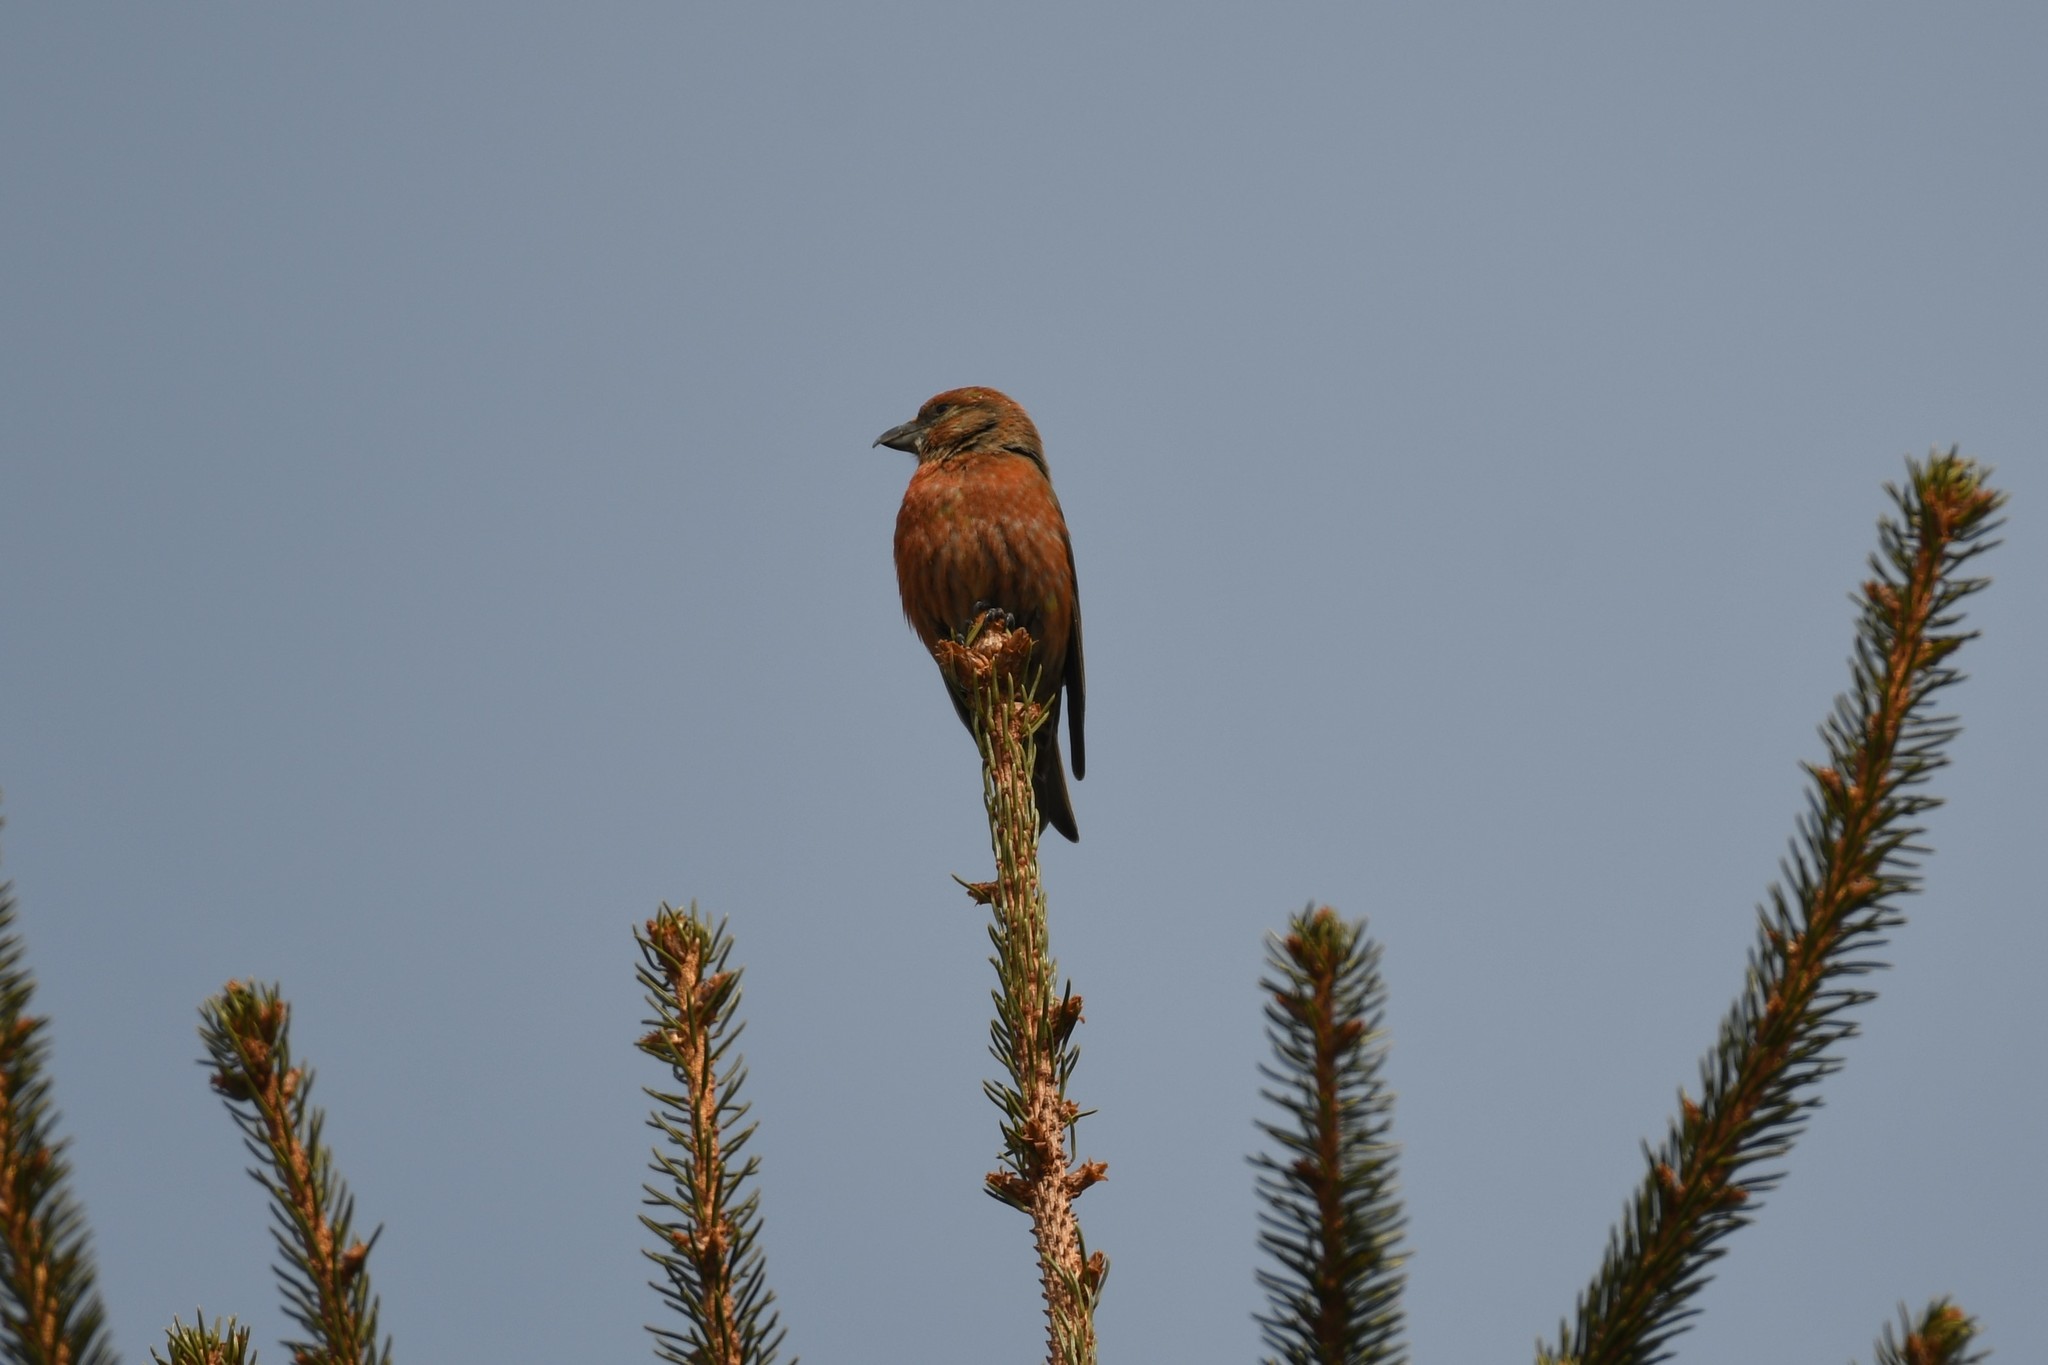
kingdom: Animalia
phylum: Chordata
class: Aves
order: Passeriformes
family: Fringillidae
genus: Loxia
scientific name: Loxia curvirostra
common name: Red crossbill
